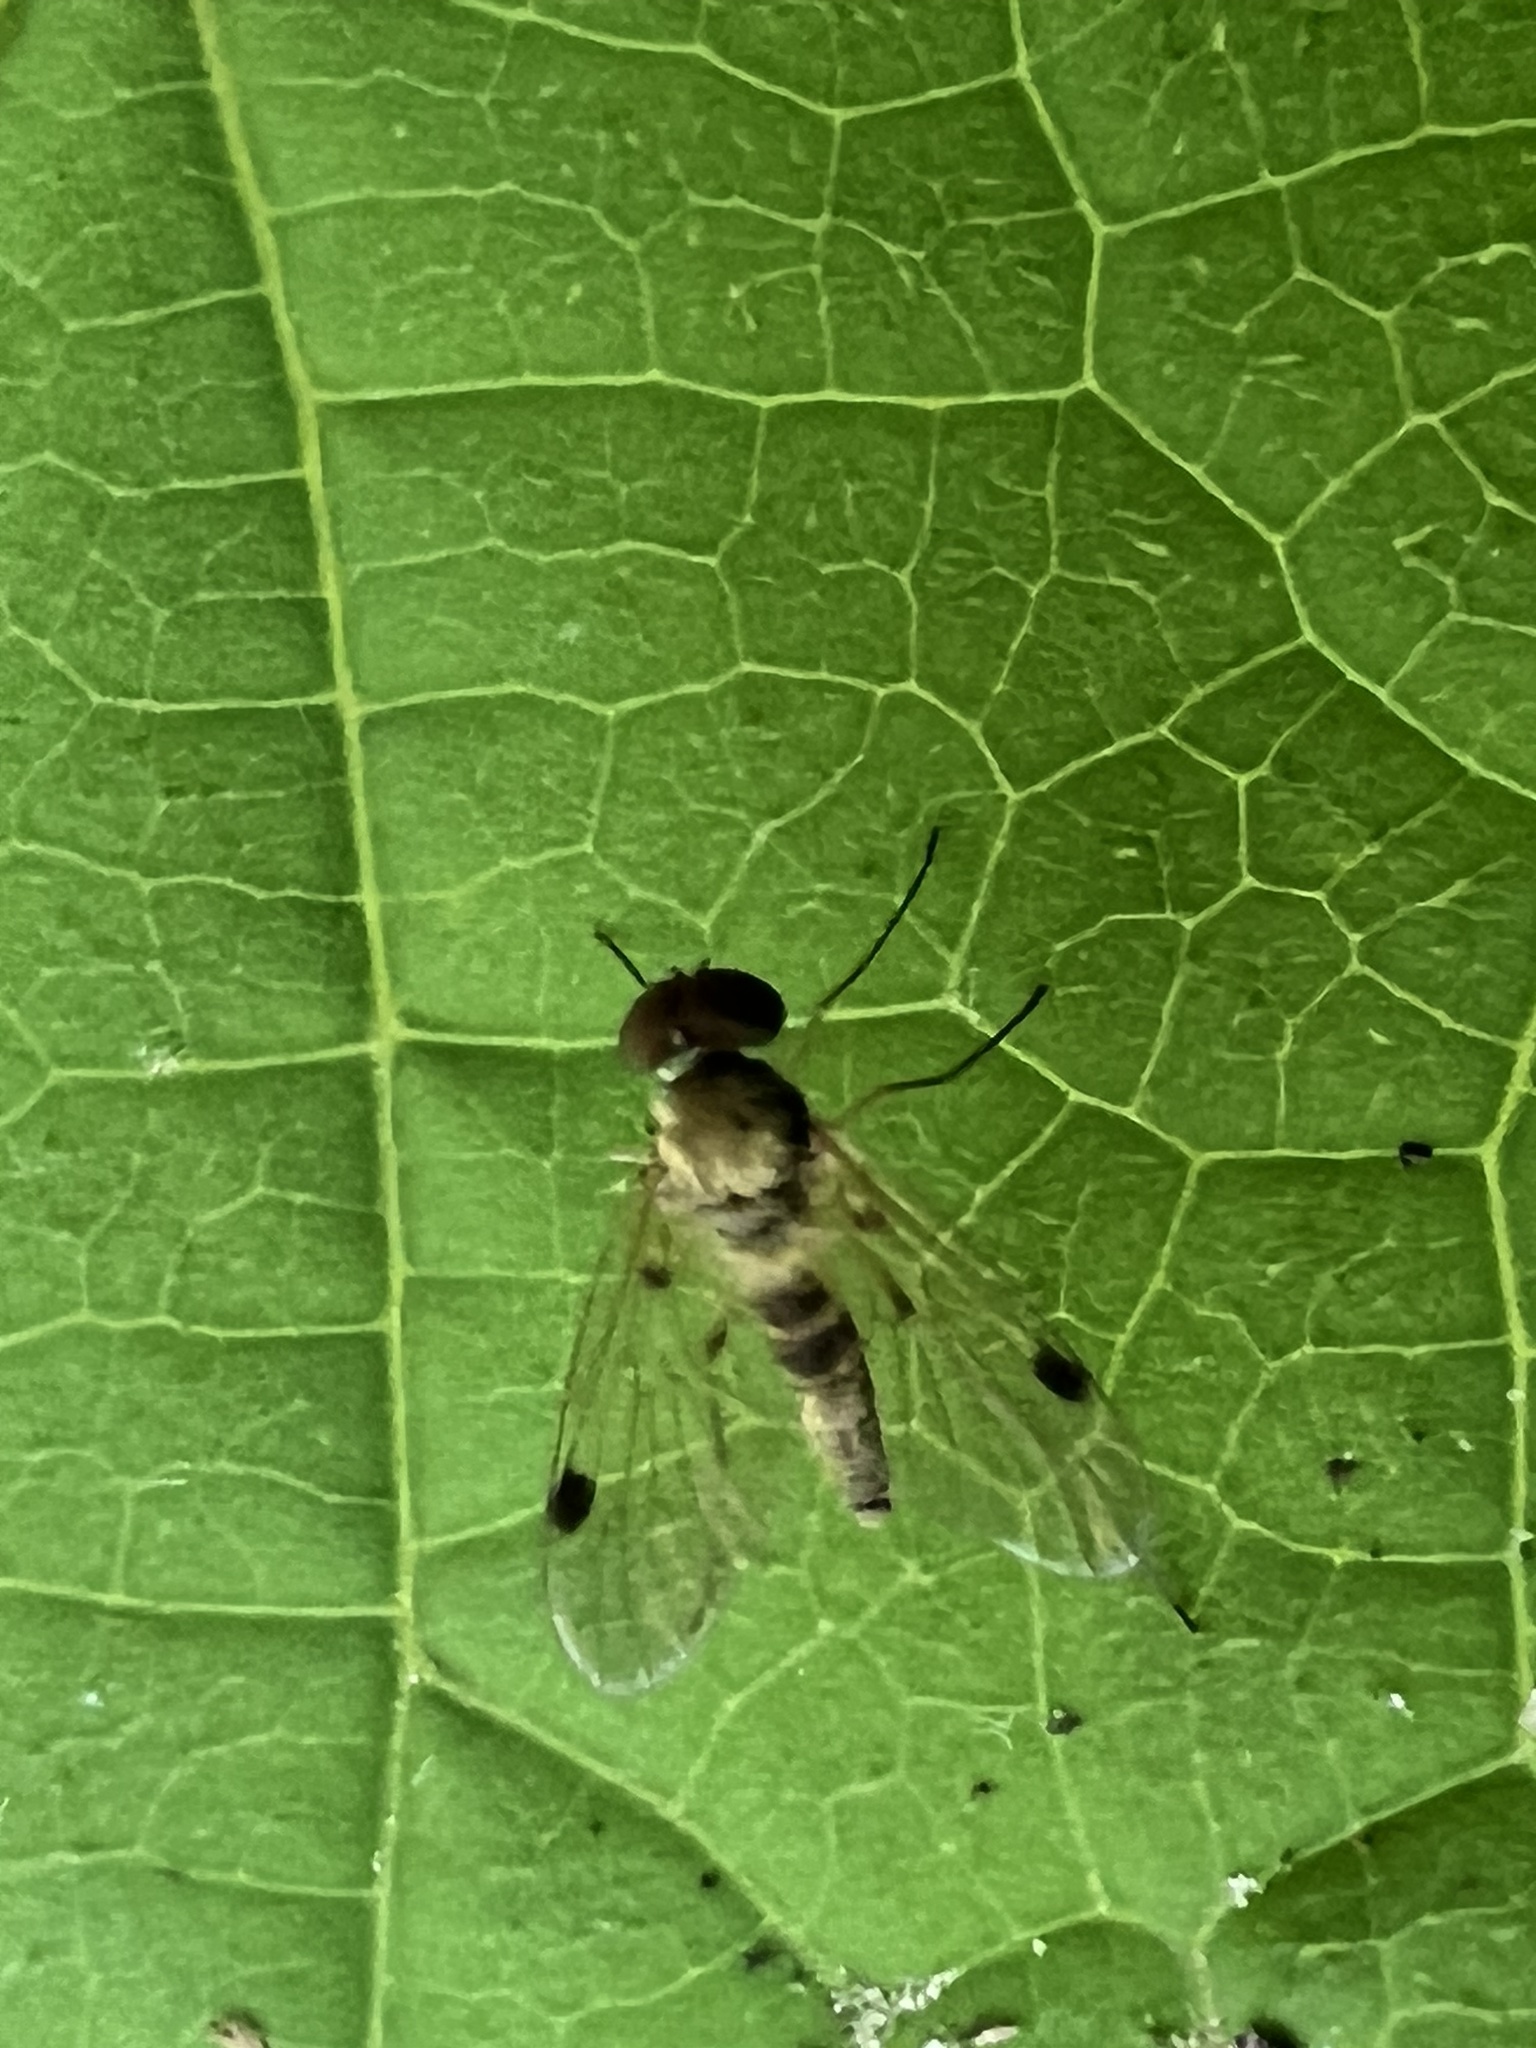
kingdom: Animalia
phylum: Arthropoda
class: Insecta
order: Diptera
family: Rhagionidae
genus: Chrysopilus
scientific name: Chrysopilus modestus
